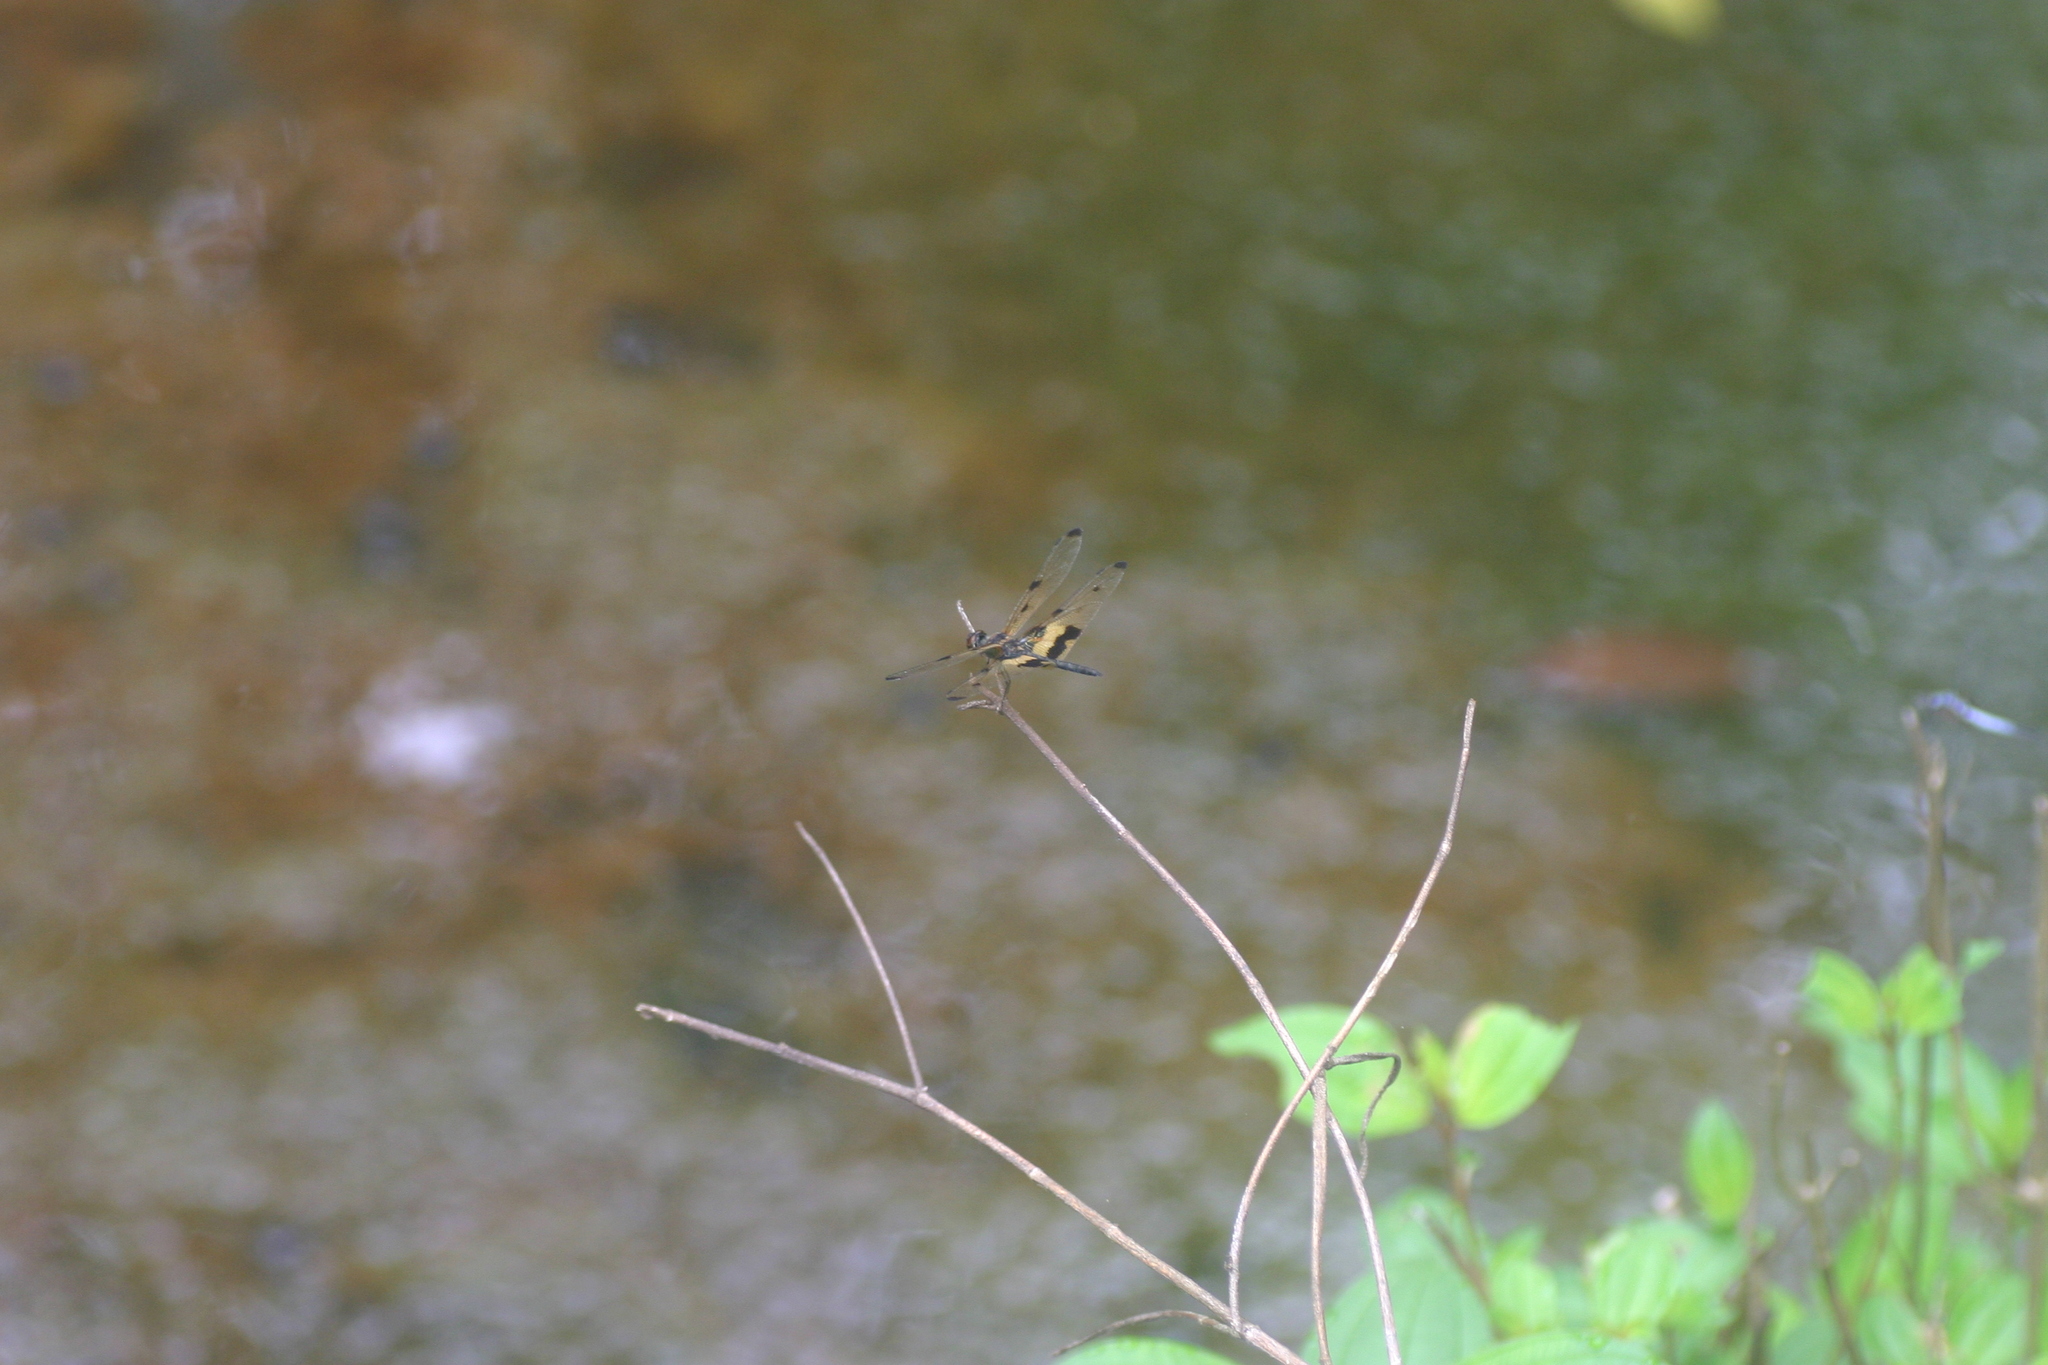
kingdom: Animalia
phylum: Arthropoda
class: Insecta
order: Odonata
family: Libellulidae
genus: Rhyothemis
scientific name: Rhyothemis variegata
